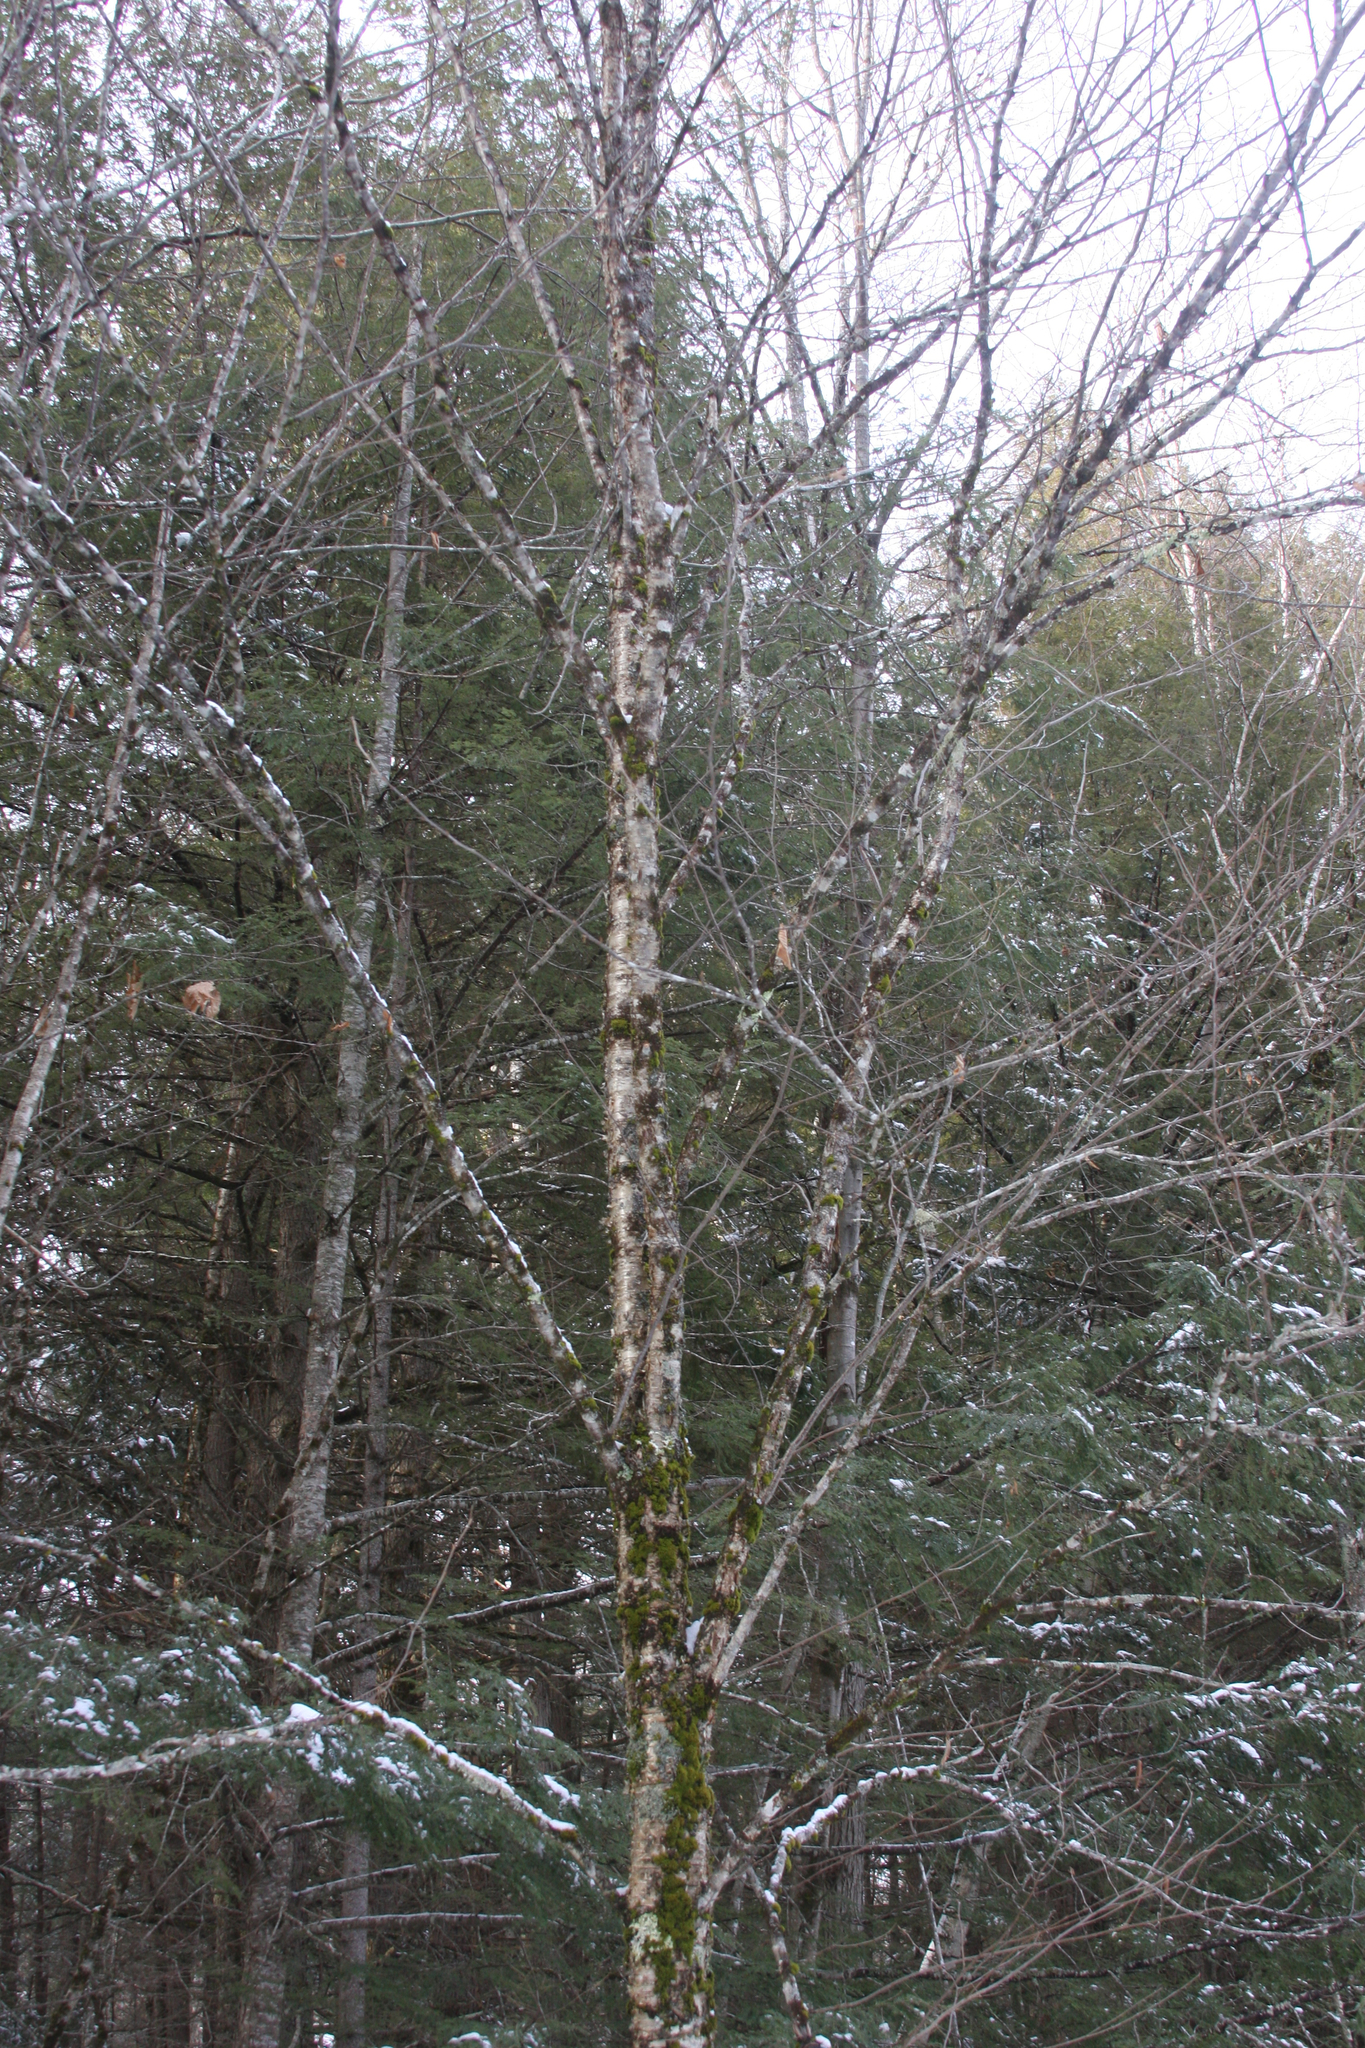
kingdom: Plantae
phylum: Tracheophyta
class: Magnoliopsida
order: Fagales
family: Betulaceae
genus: Betula
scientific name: Betula alleghaniensis
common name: Yellow birch
